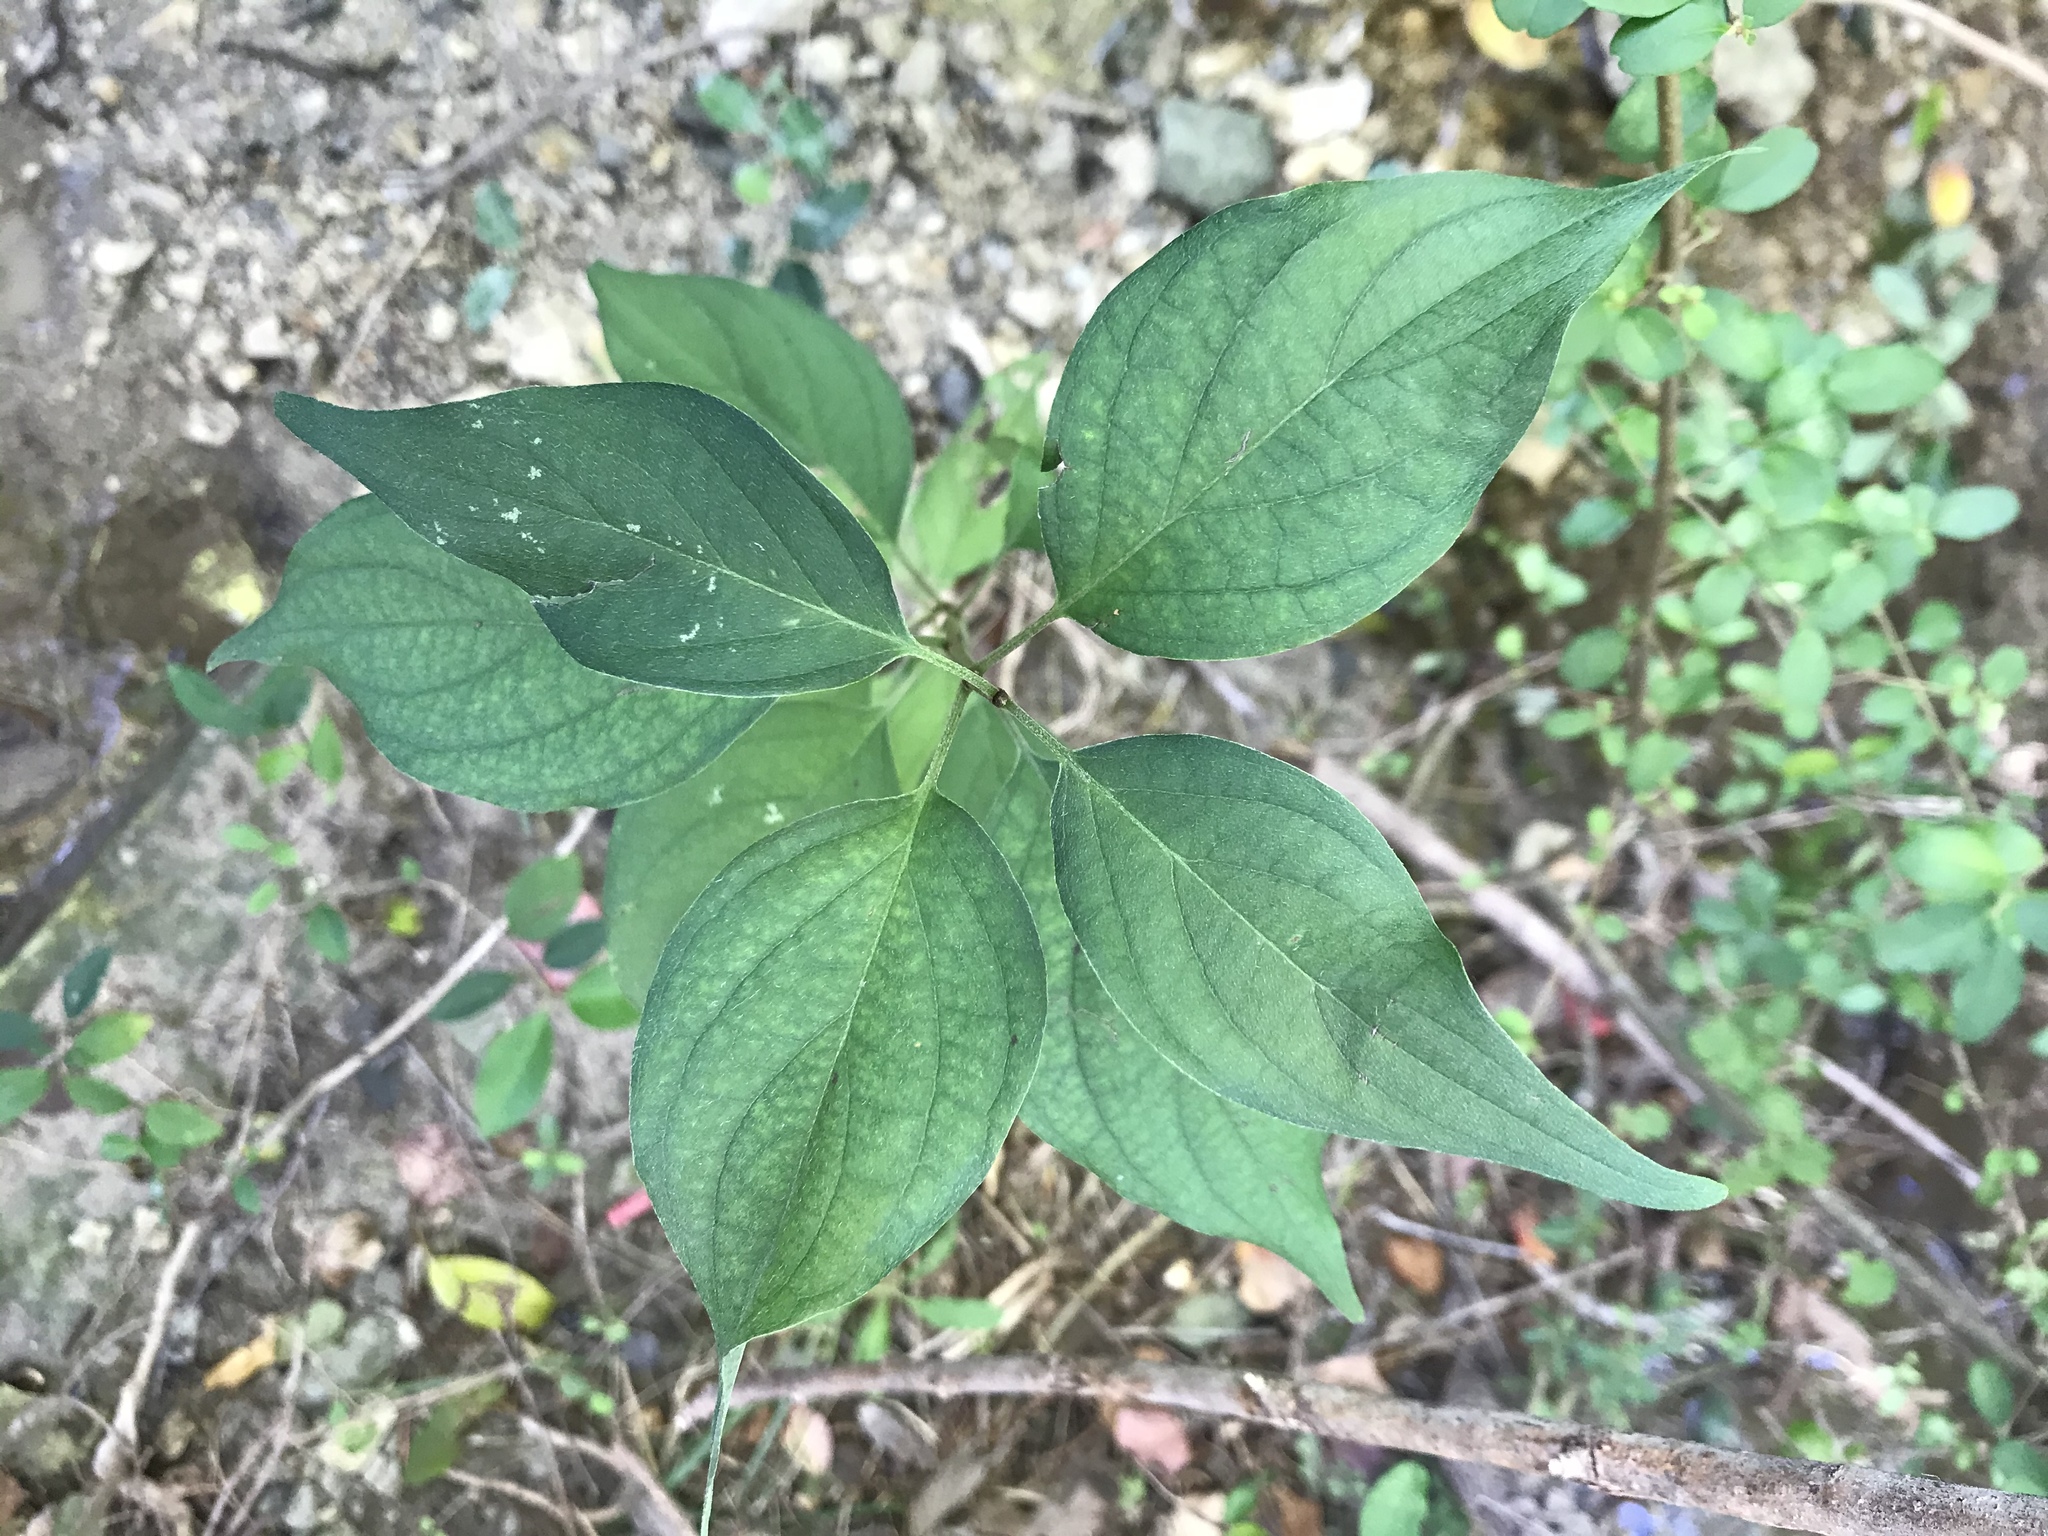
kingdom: Plantae
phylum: Tracheophyta
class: Magnoliopsida
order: Cornales
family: Cornaceae
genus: Cornus
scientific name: Cornus drummondii
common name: Rough-leaf dogwood
